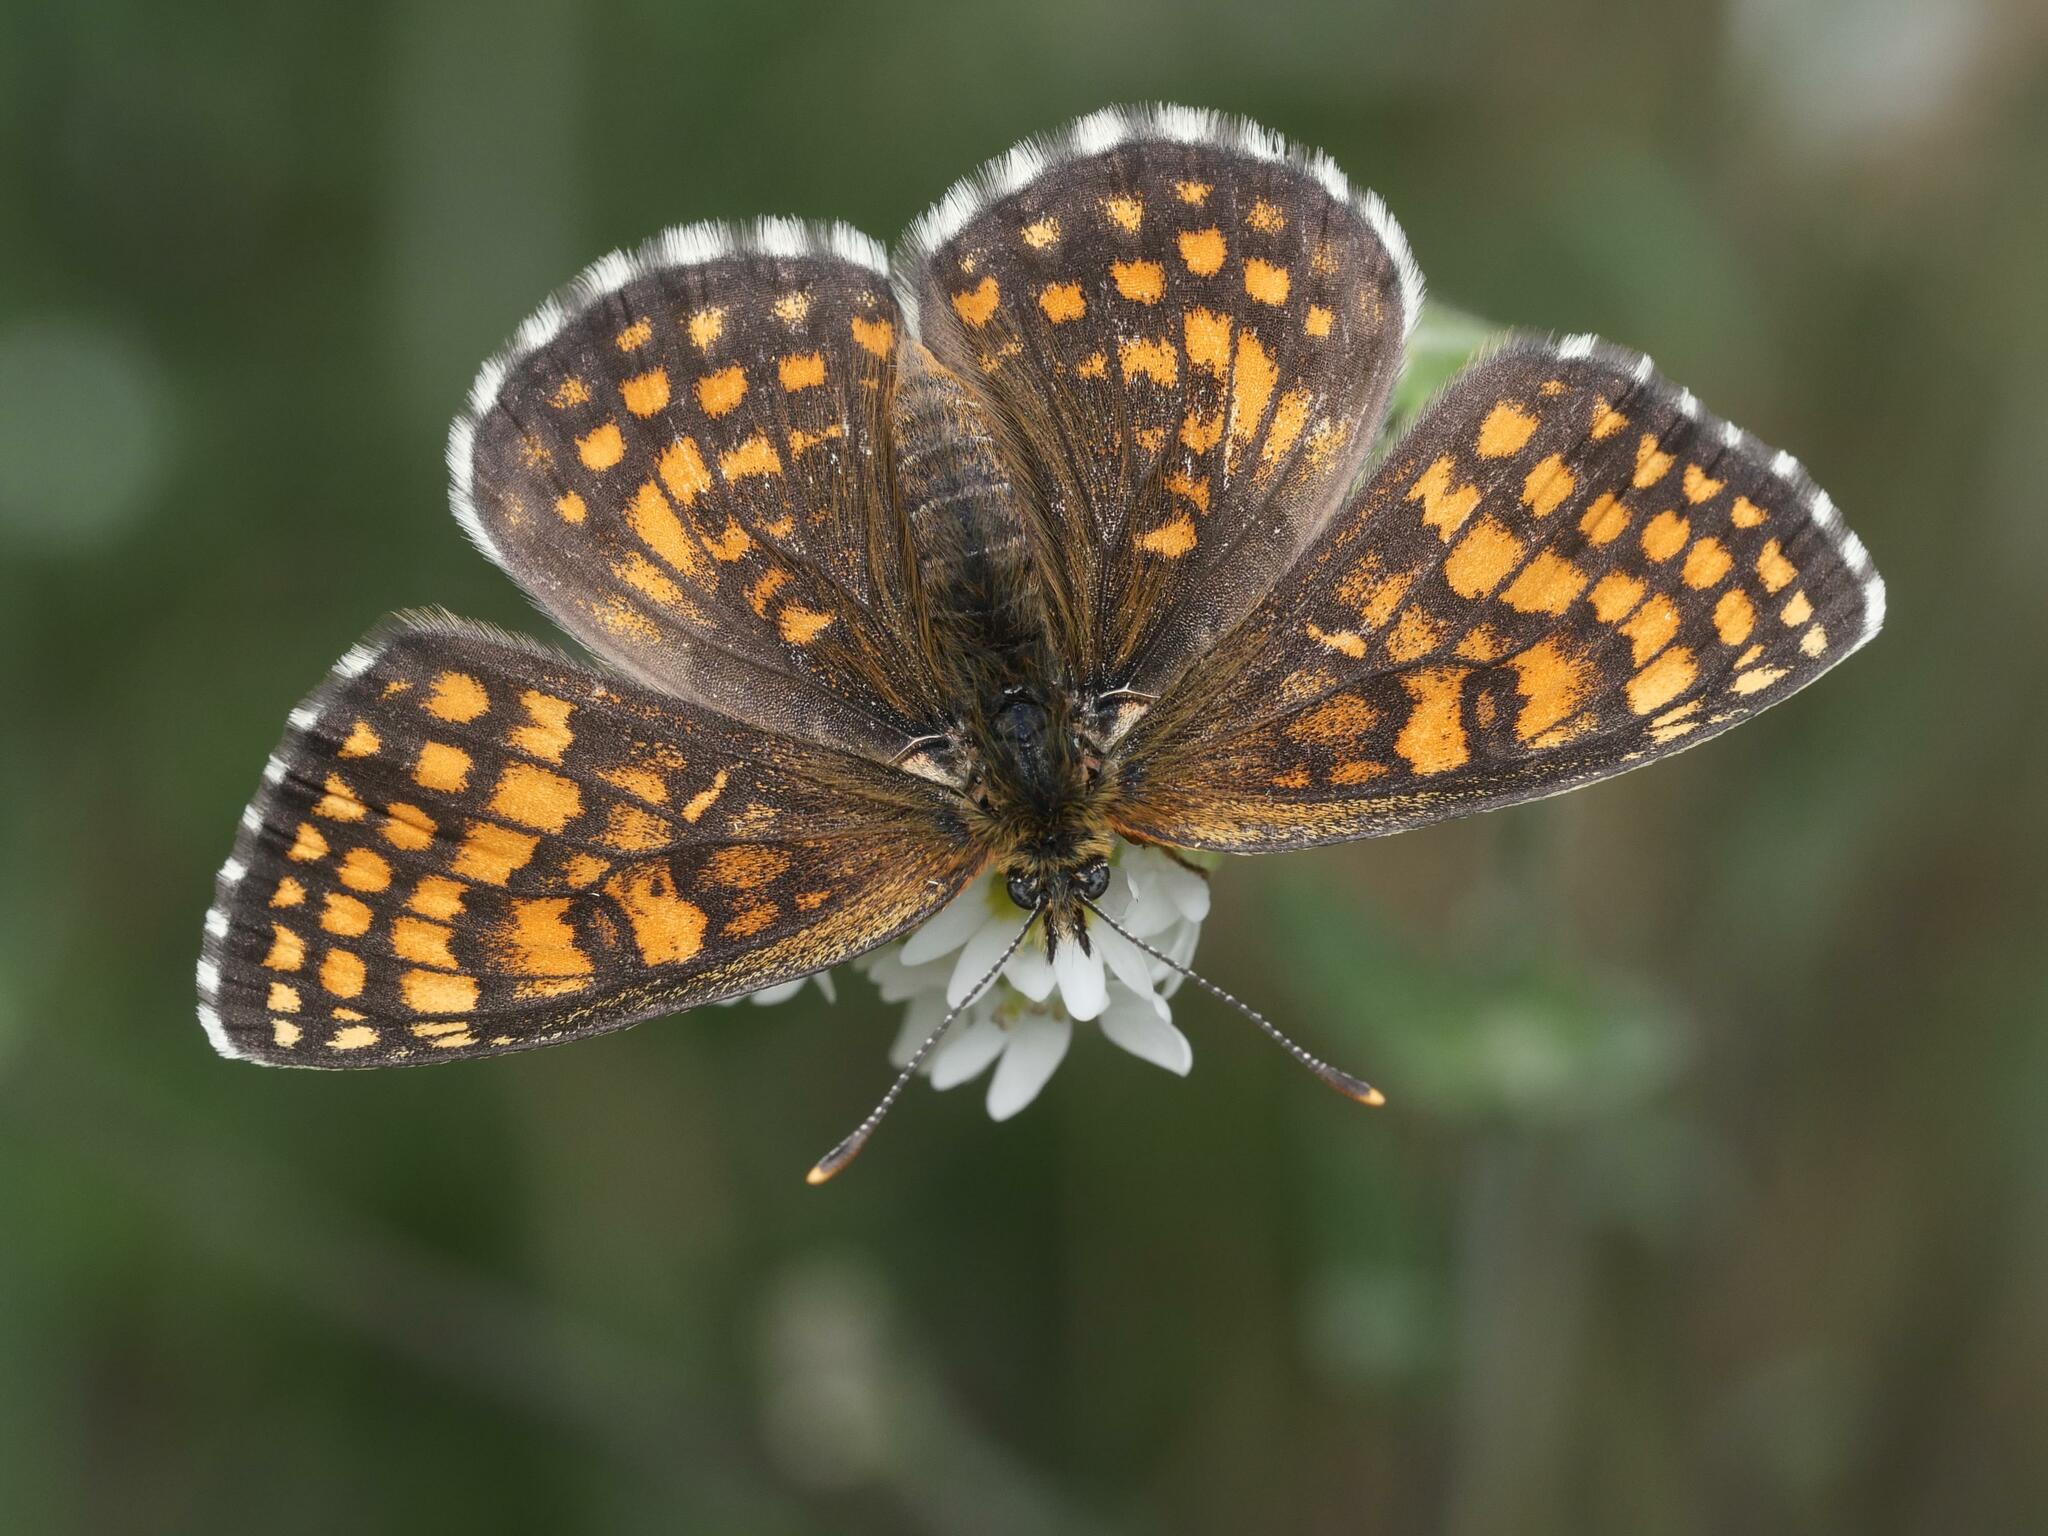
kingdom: Animalia
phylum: Arthropoda
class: Insecta
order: Lepidoptera
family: Nymphalidae
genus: Melitaea
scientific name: Melitaea athalia
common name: Heath fritillary
